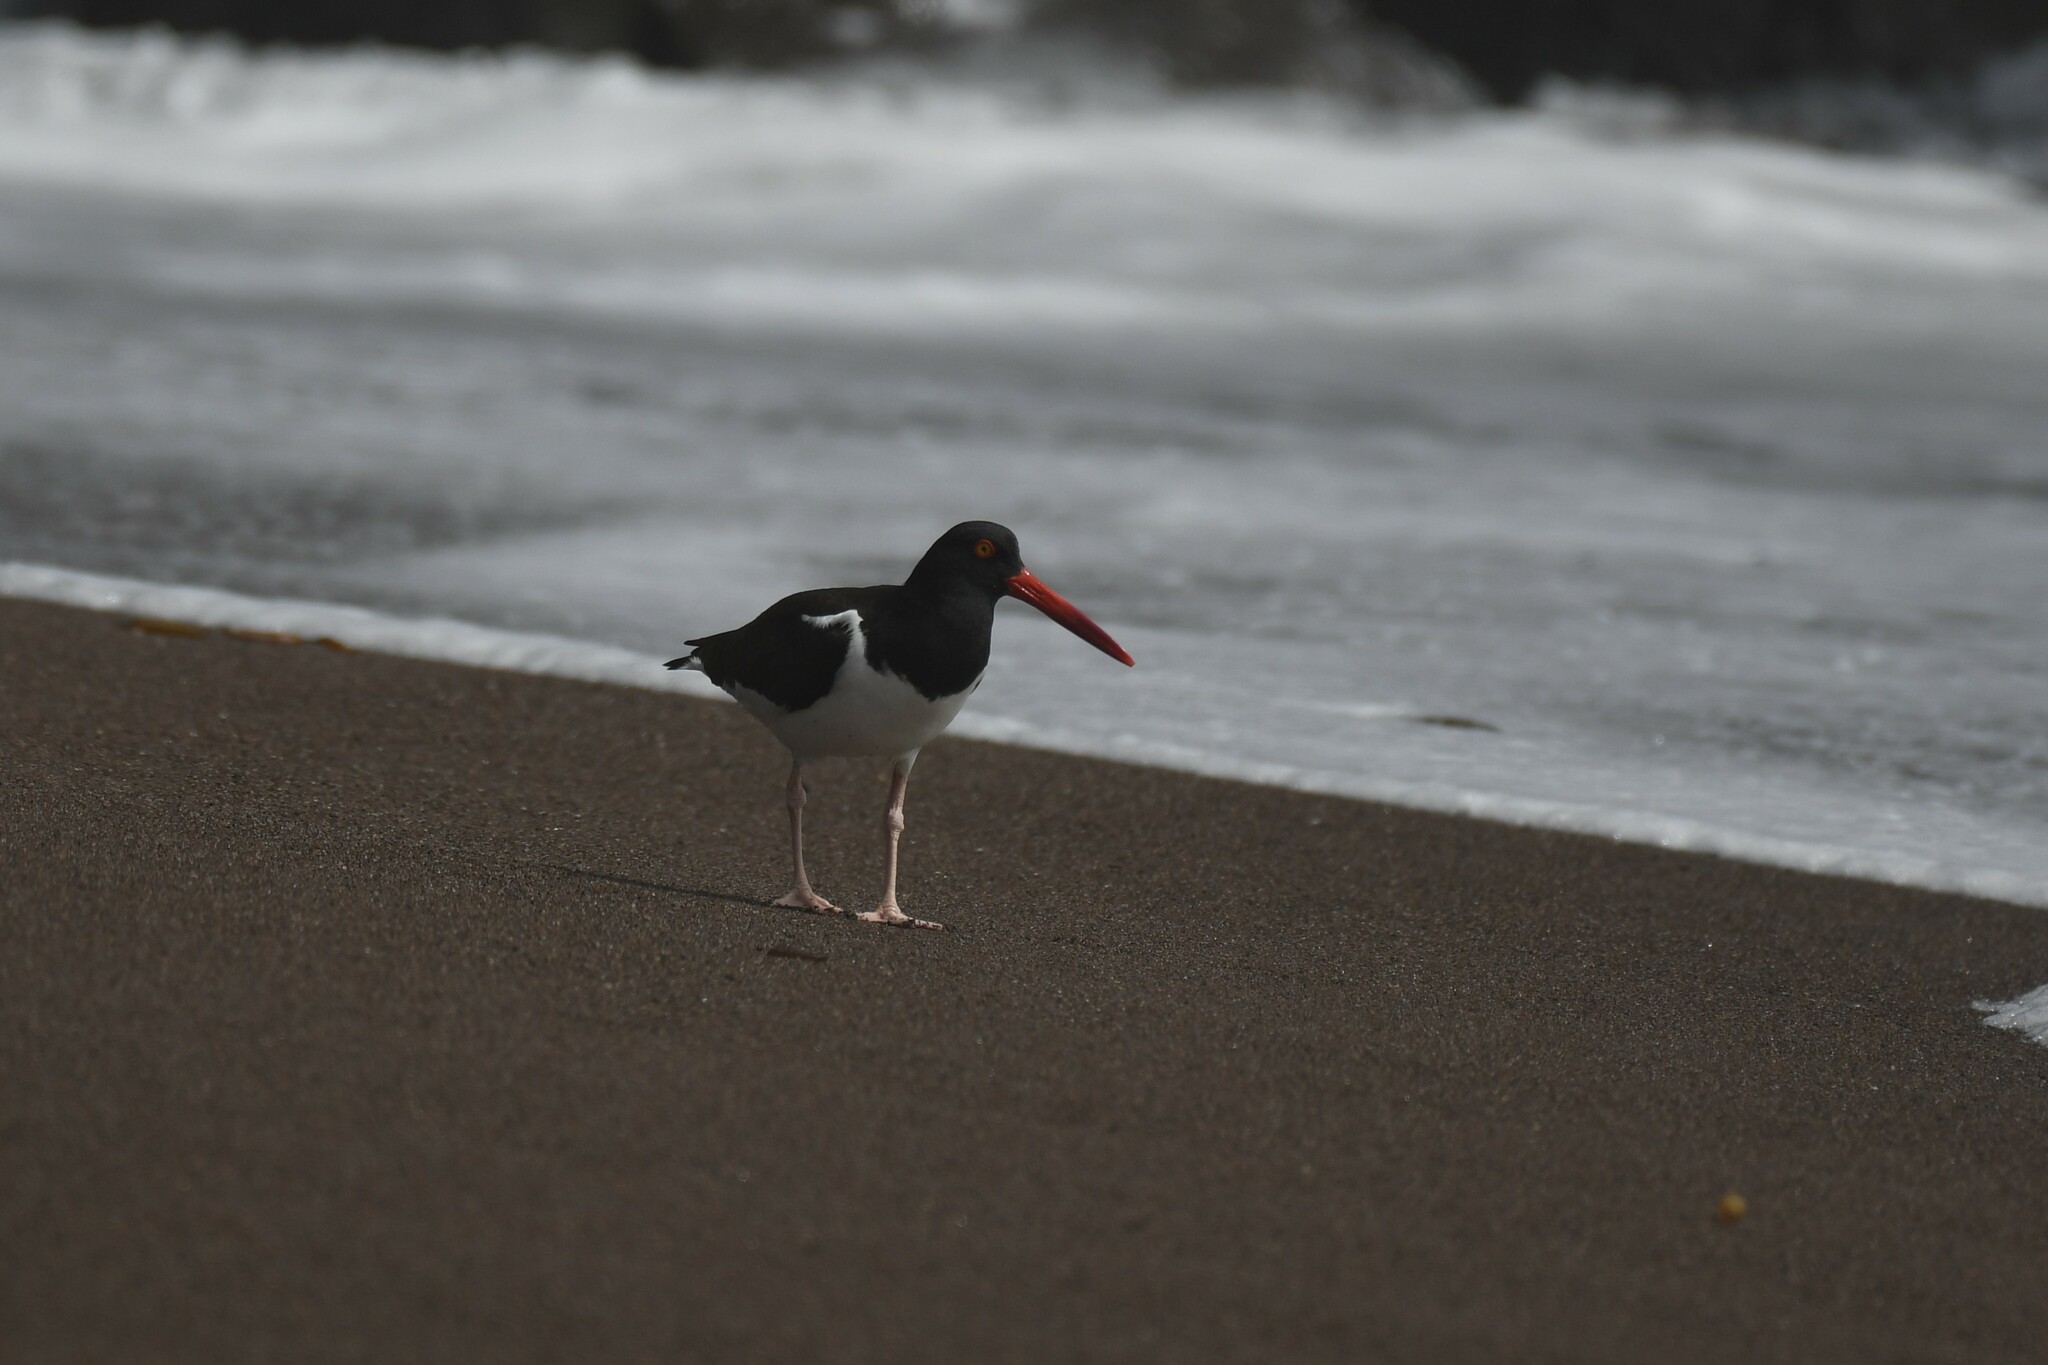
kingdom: Animalia
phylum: Chordata
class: Aves
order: Charadriiformes
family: Haematopodidae
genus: Haematopus
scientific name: Haematopus palliatus
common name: American oystercatcher
